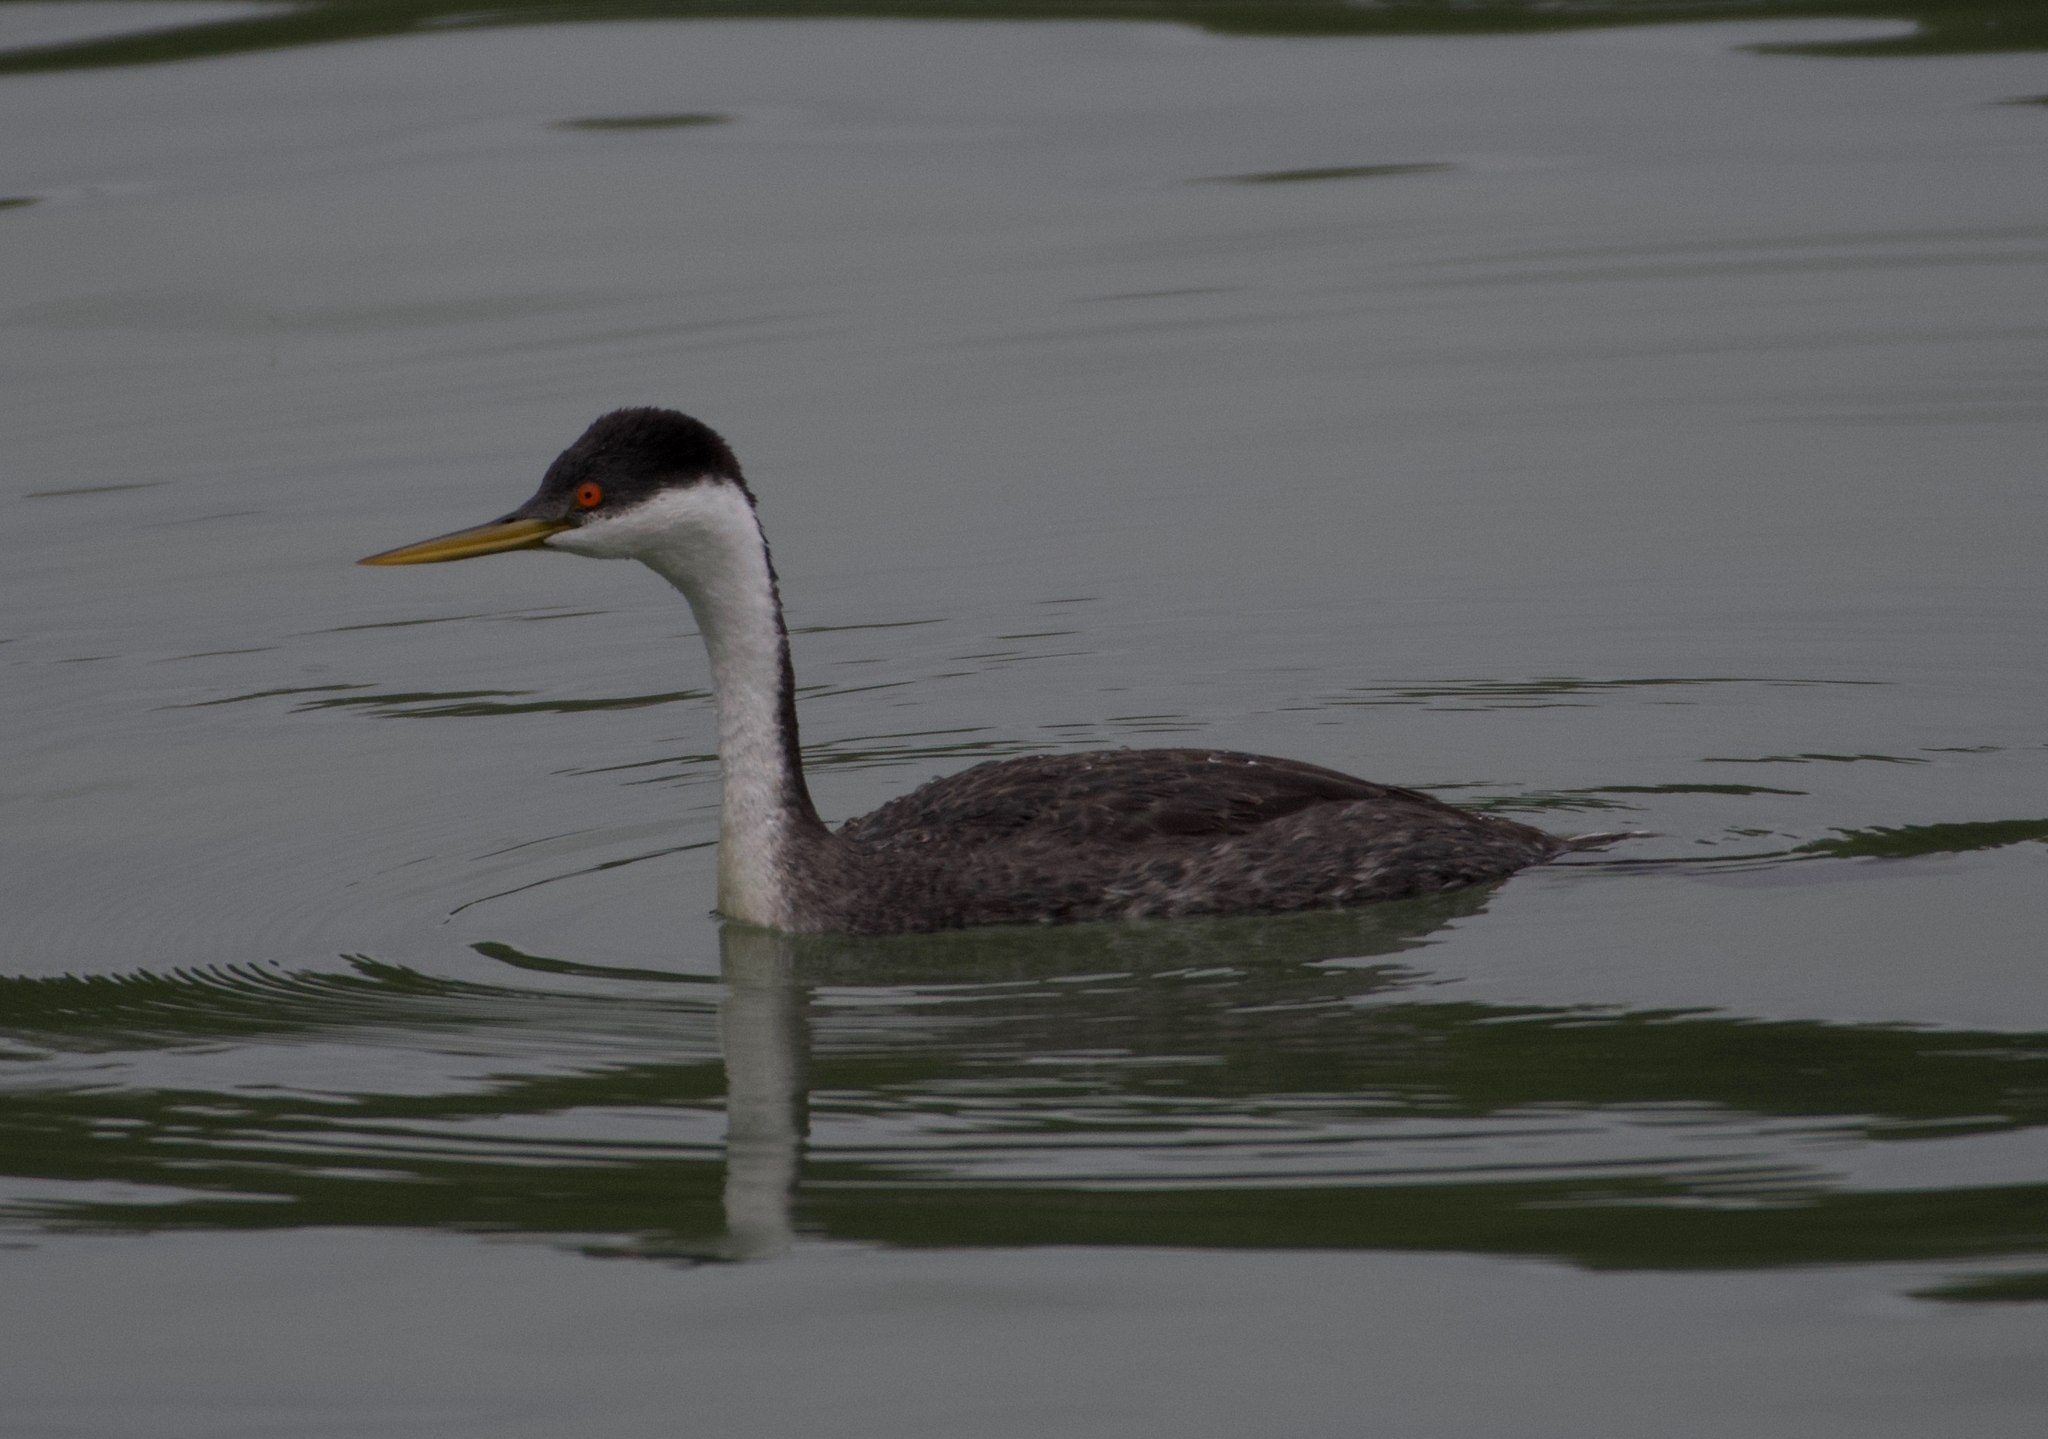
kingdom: Animalia
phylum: Chordata
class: Aves
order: Podicipediformes
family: Podicipedidae
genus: Aechmophorus
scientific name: Aechmophorus occidentalis
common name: Western grebe
